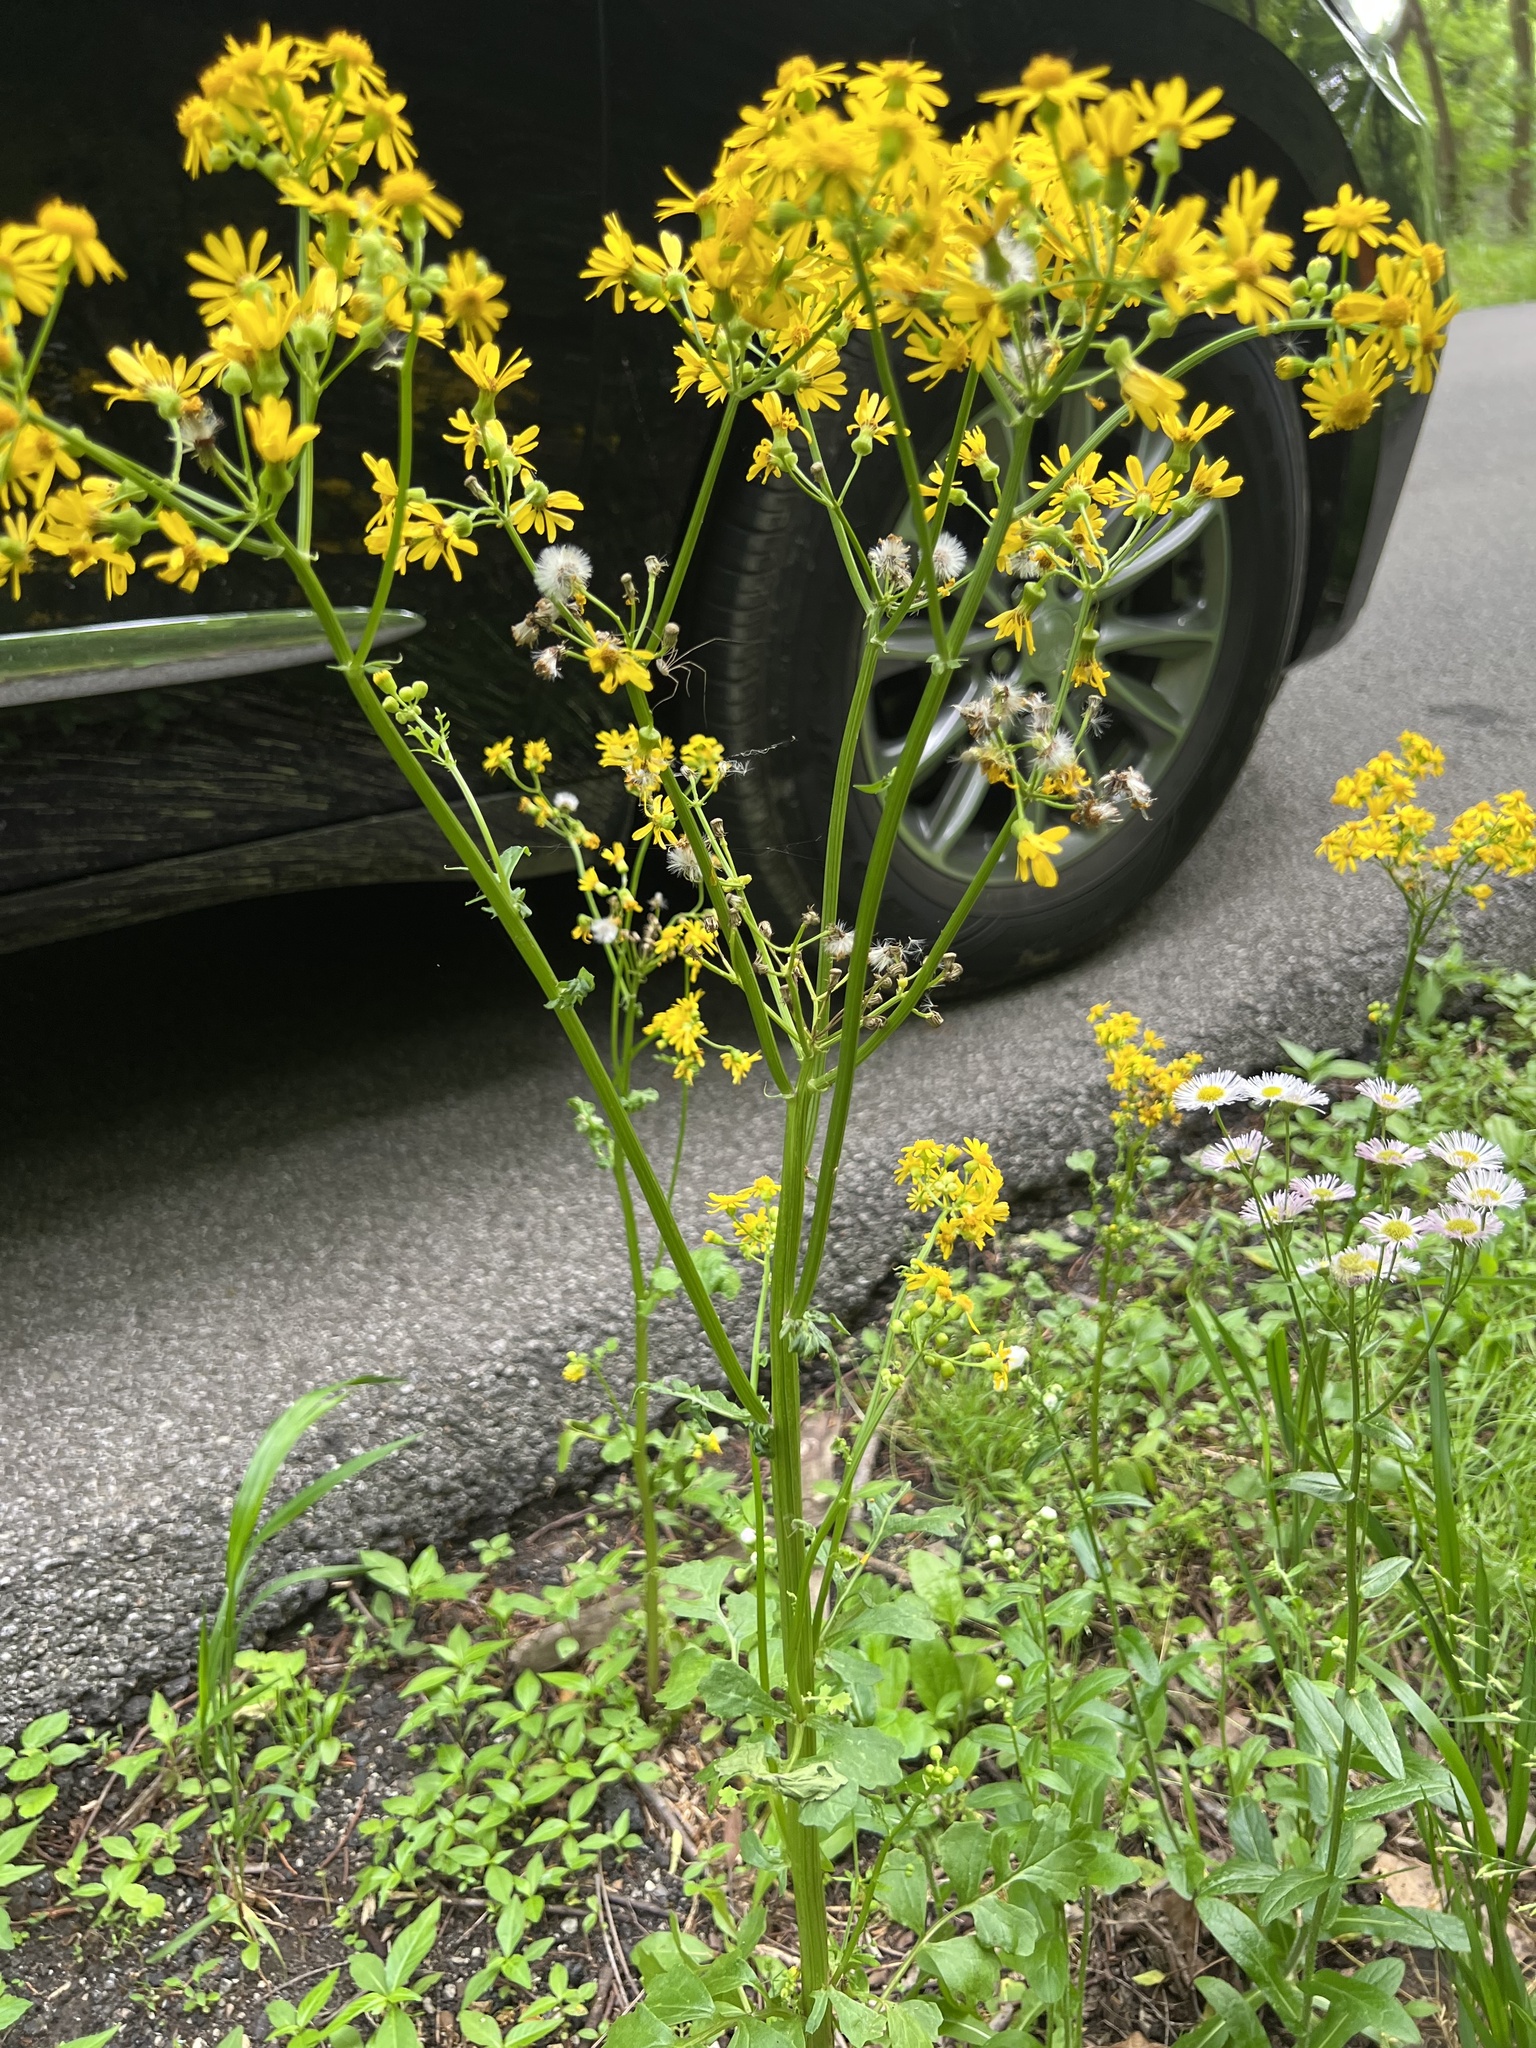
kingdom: Plantae
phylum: Tracheophyta
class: Magnoliopsida
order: Asterales
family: Asteraceae
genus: Packera
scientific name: Packera glabella
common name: Butterweed
